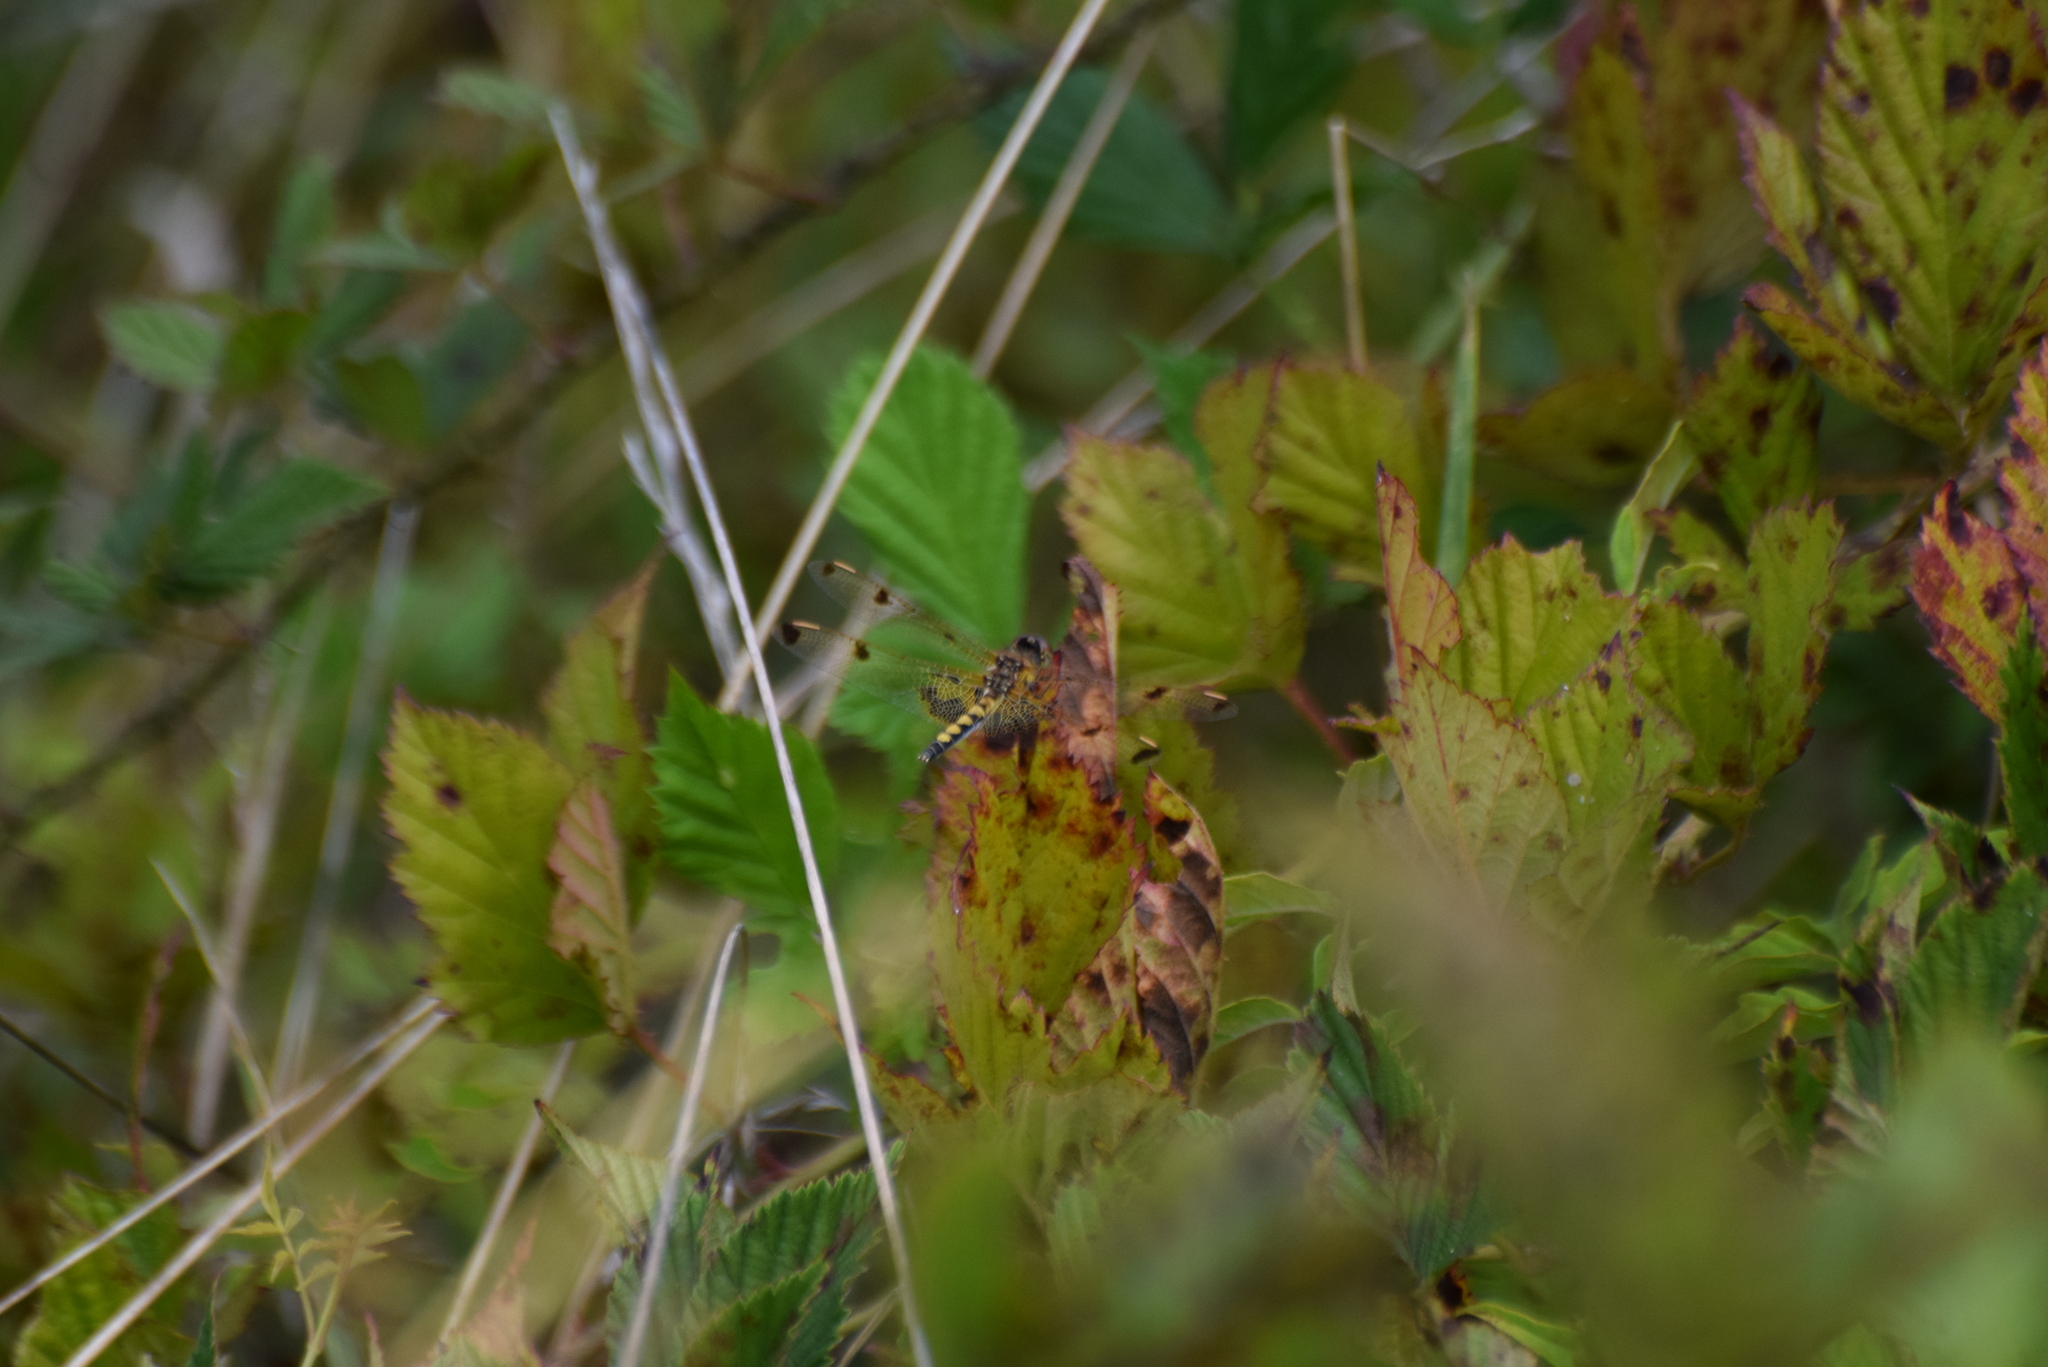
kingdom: Animalia
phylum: Arthropoda
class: Insecta
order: Odonata
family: Libellulidae
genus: Celithemis
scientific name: Celithemis elisa
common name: Calico pennant
